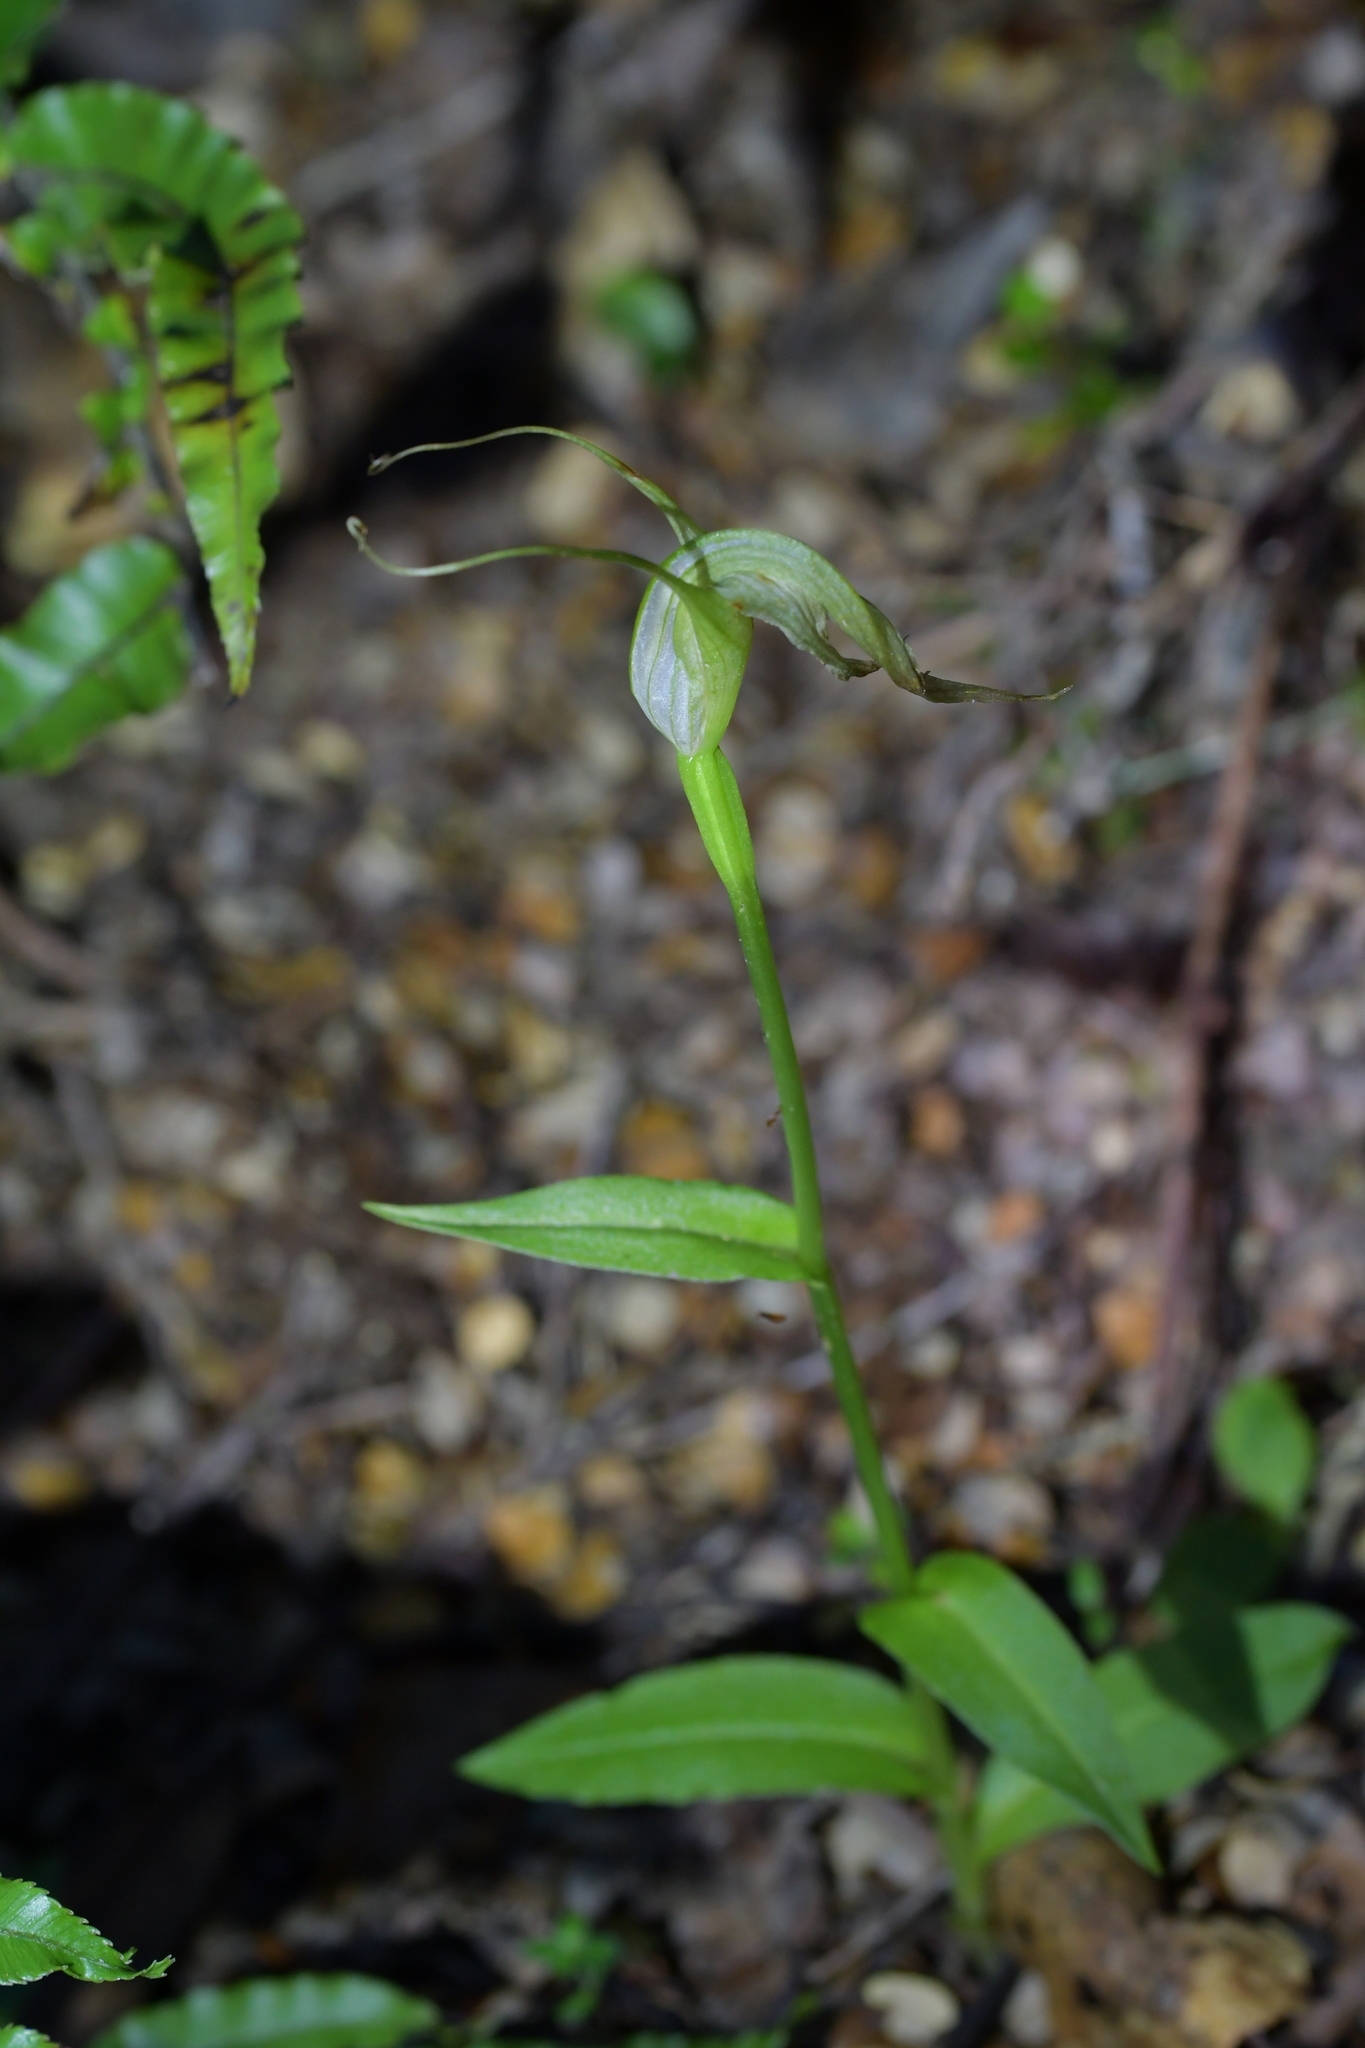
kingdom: Plantae
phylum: Tracheophyta
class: Liliopsida
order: Asparagales
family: Orchidaceae
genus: Pterostylis
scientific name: Pterostylis oliveri
